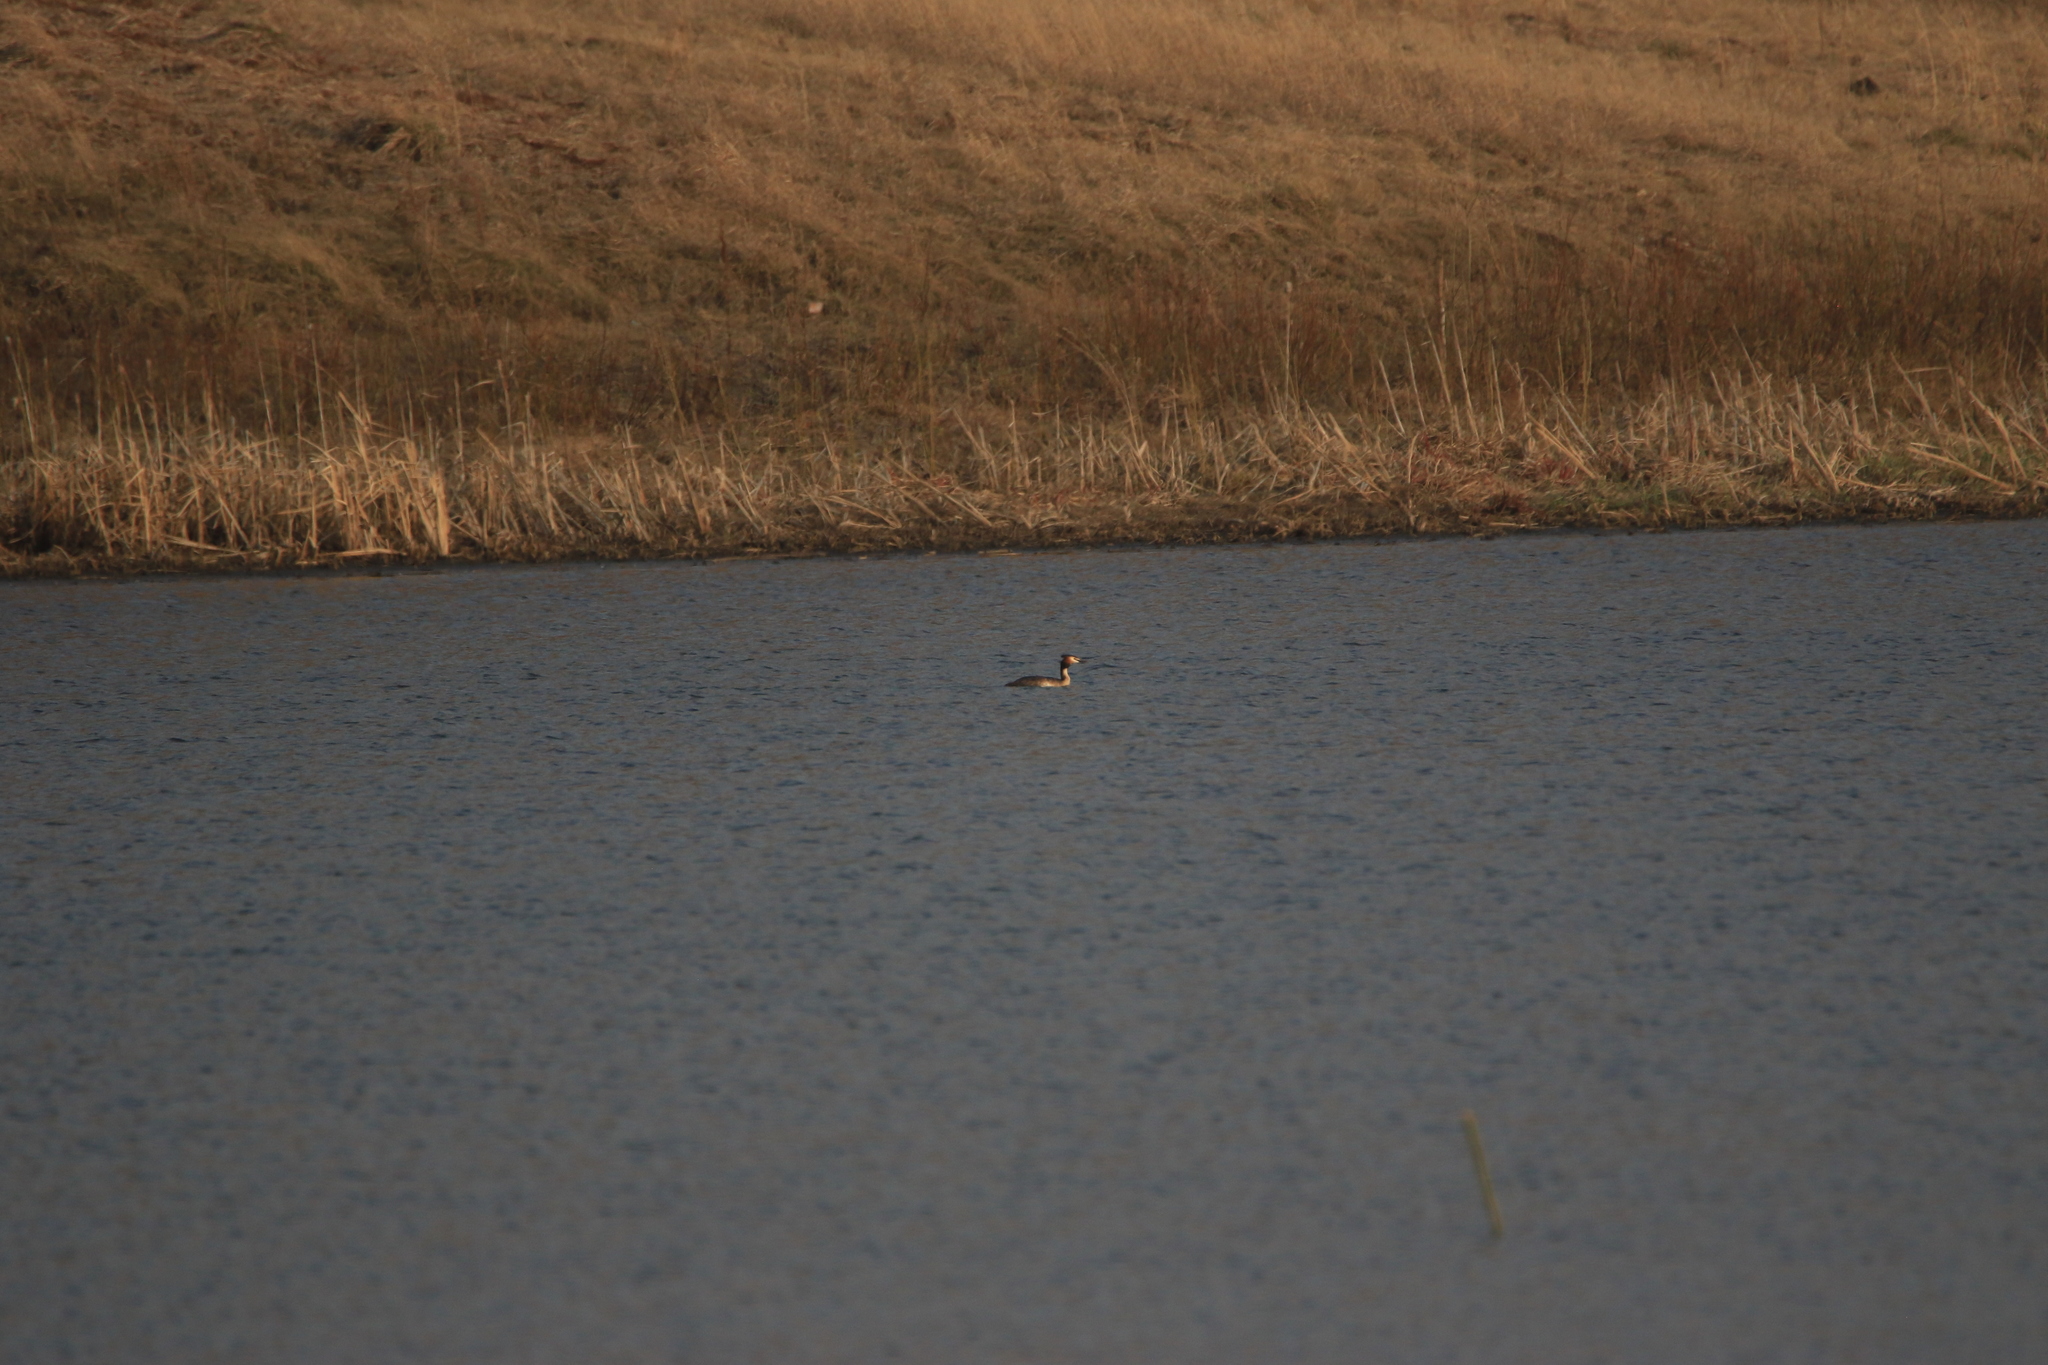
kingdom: Animalia
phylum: Chordata
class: Aves
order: Podicipediformes
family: Podicipedidae
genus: Podiceps
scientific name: Podiceps cristatus
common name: Great crested grebe
